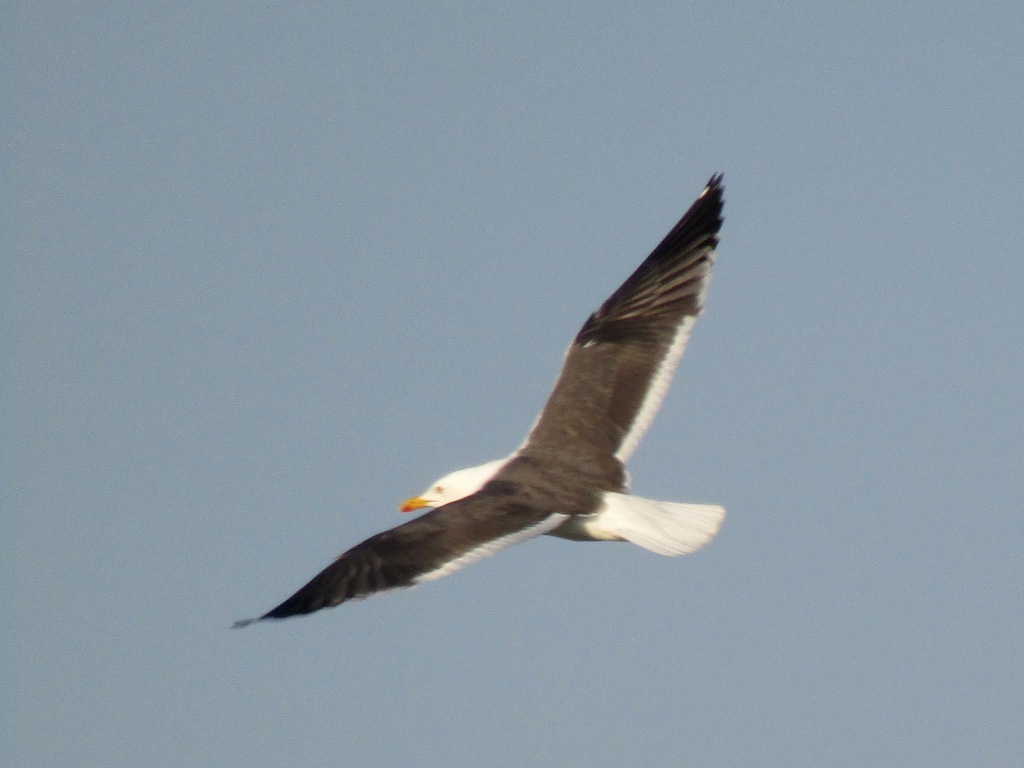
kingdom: Animalia
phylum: Chordata
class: Aves
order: Charadriiformes
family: Laridae
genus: Larus
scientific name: Larus fuscus
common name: Lesser black-backed gull
